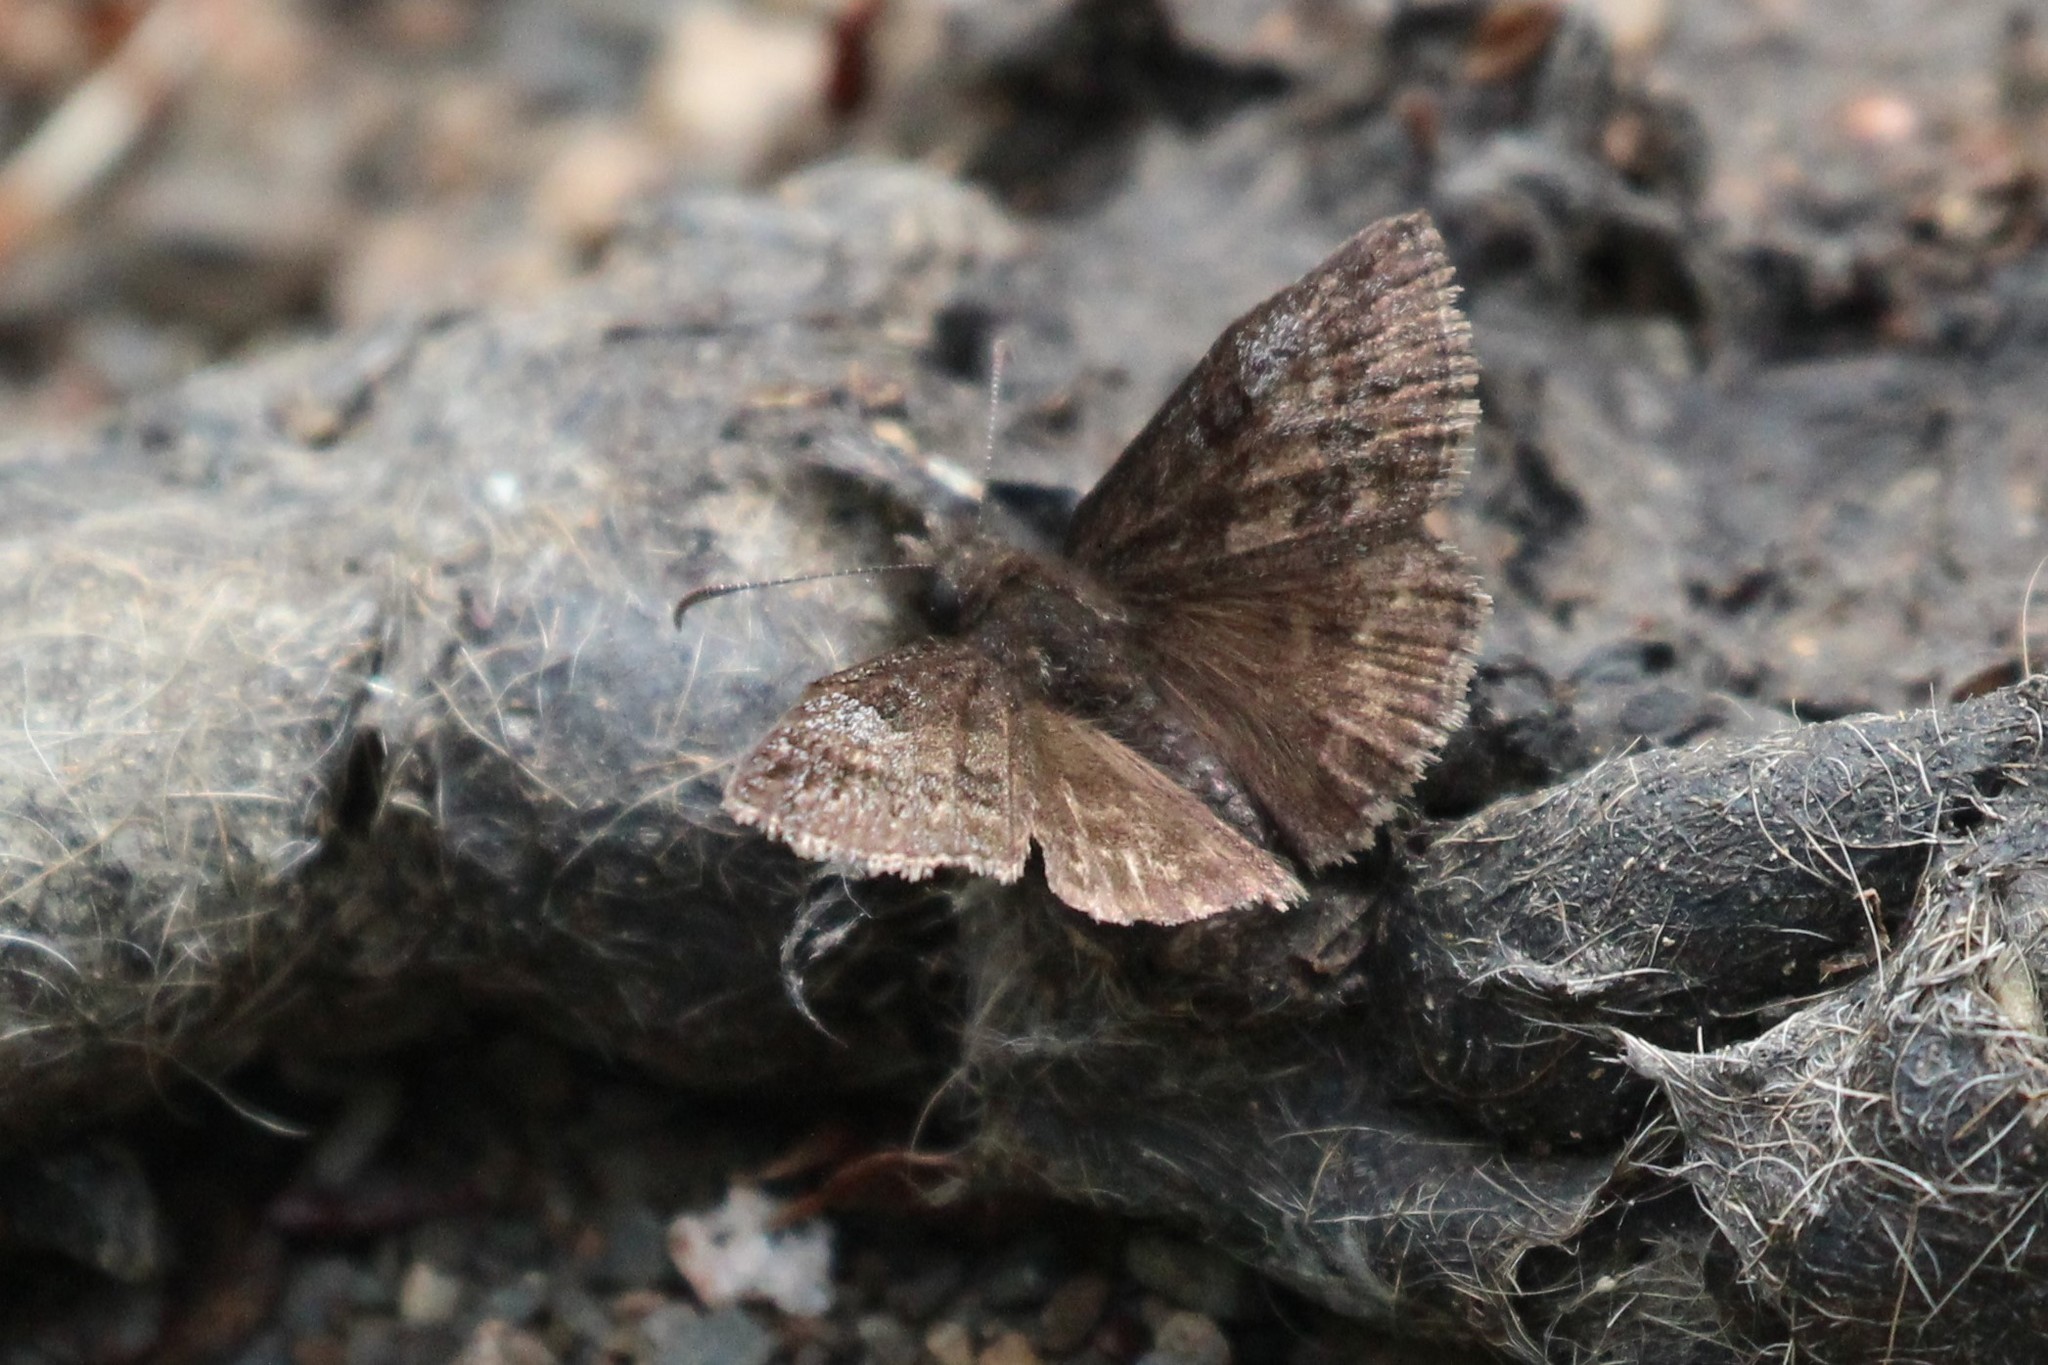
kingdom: Animalia
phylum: Arthropoda
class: Insecta
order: Lepidoptera
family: Hesperiidae
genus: Erynnis
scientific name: Erynnis icelus
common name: Dreamy duskywing
